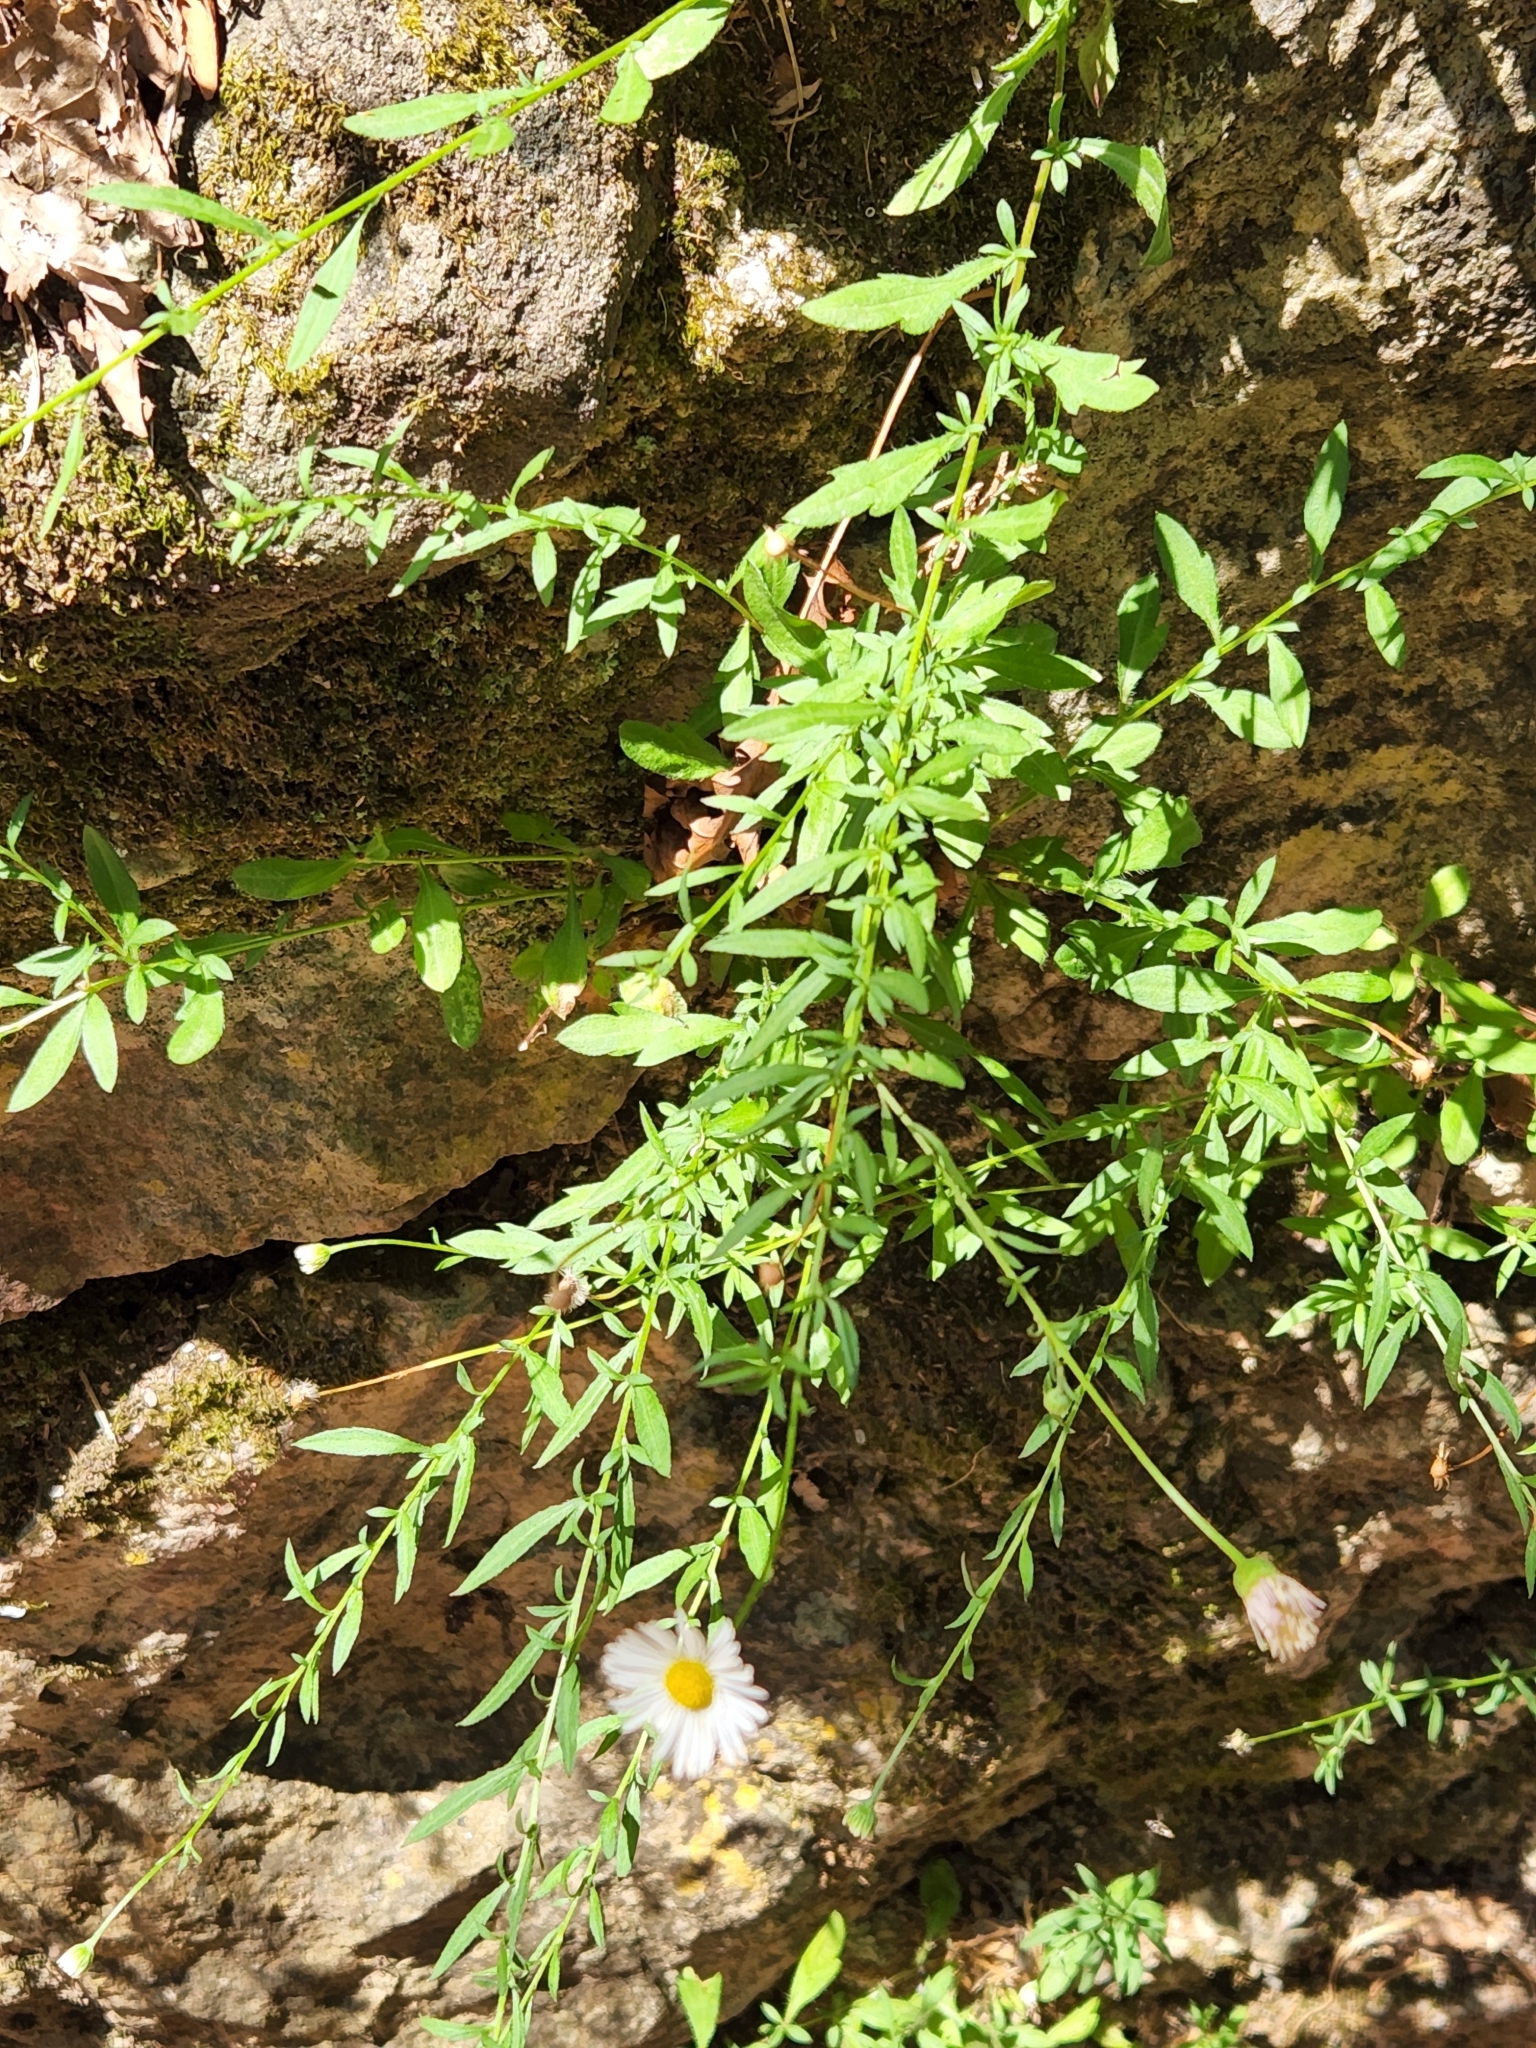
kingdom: Plantae
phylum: Tracheophyta
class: Magnoliopsida
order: Asterales
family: Asteraceae
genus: Erigeron
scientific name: Erigeron karvinskianus
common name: Mexican fleabane
